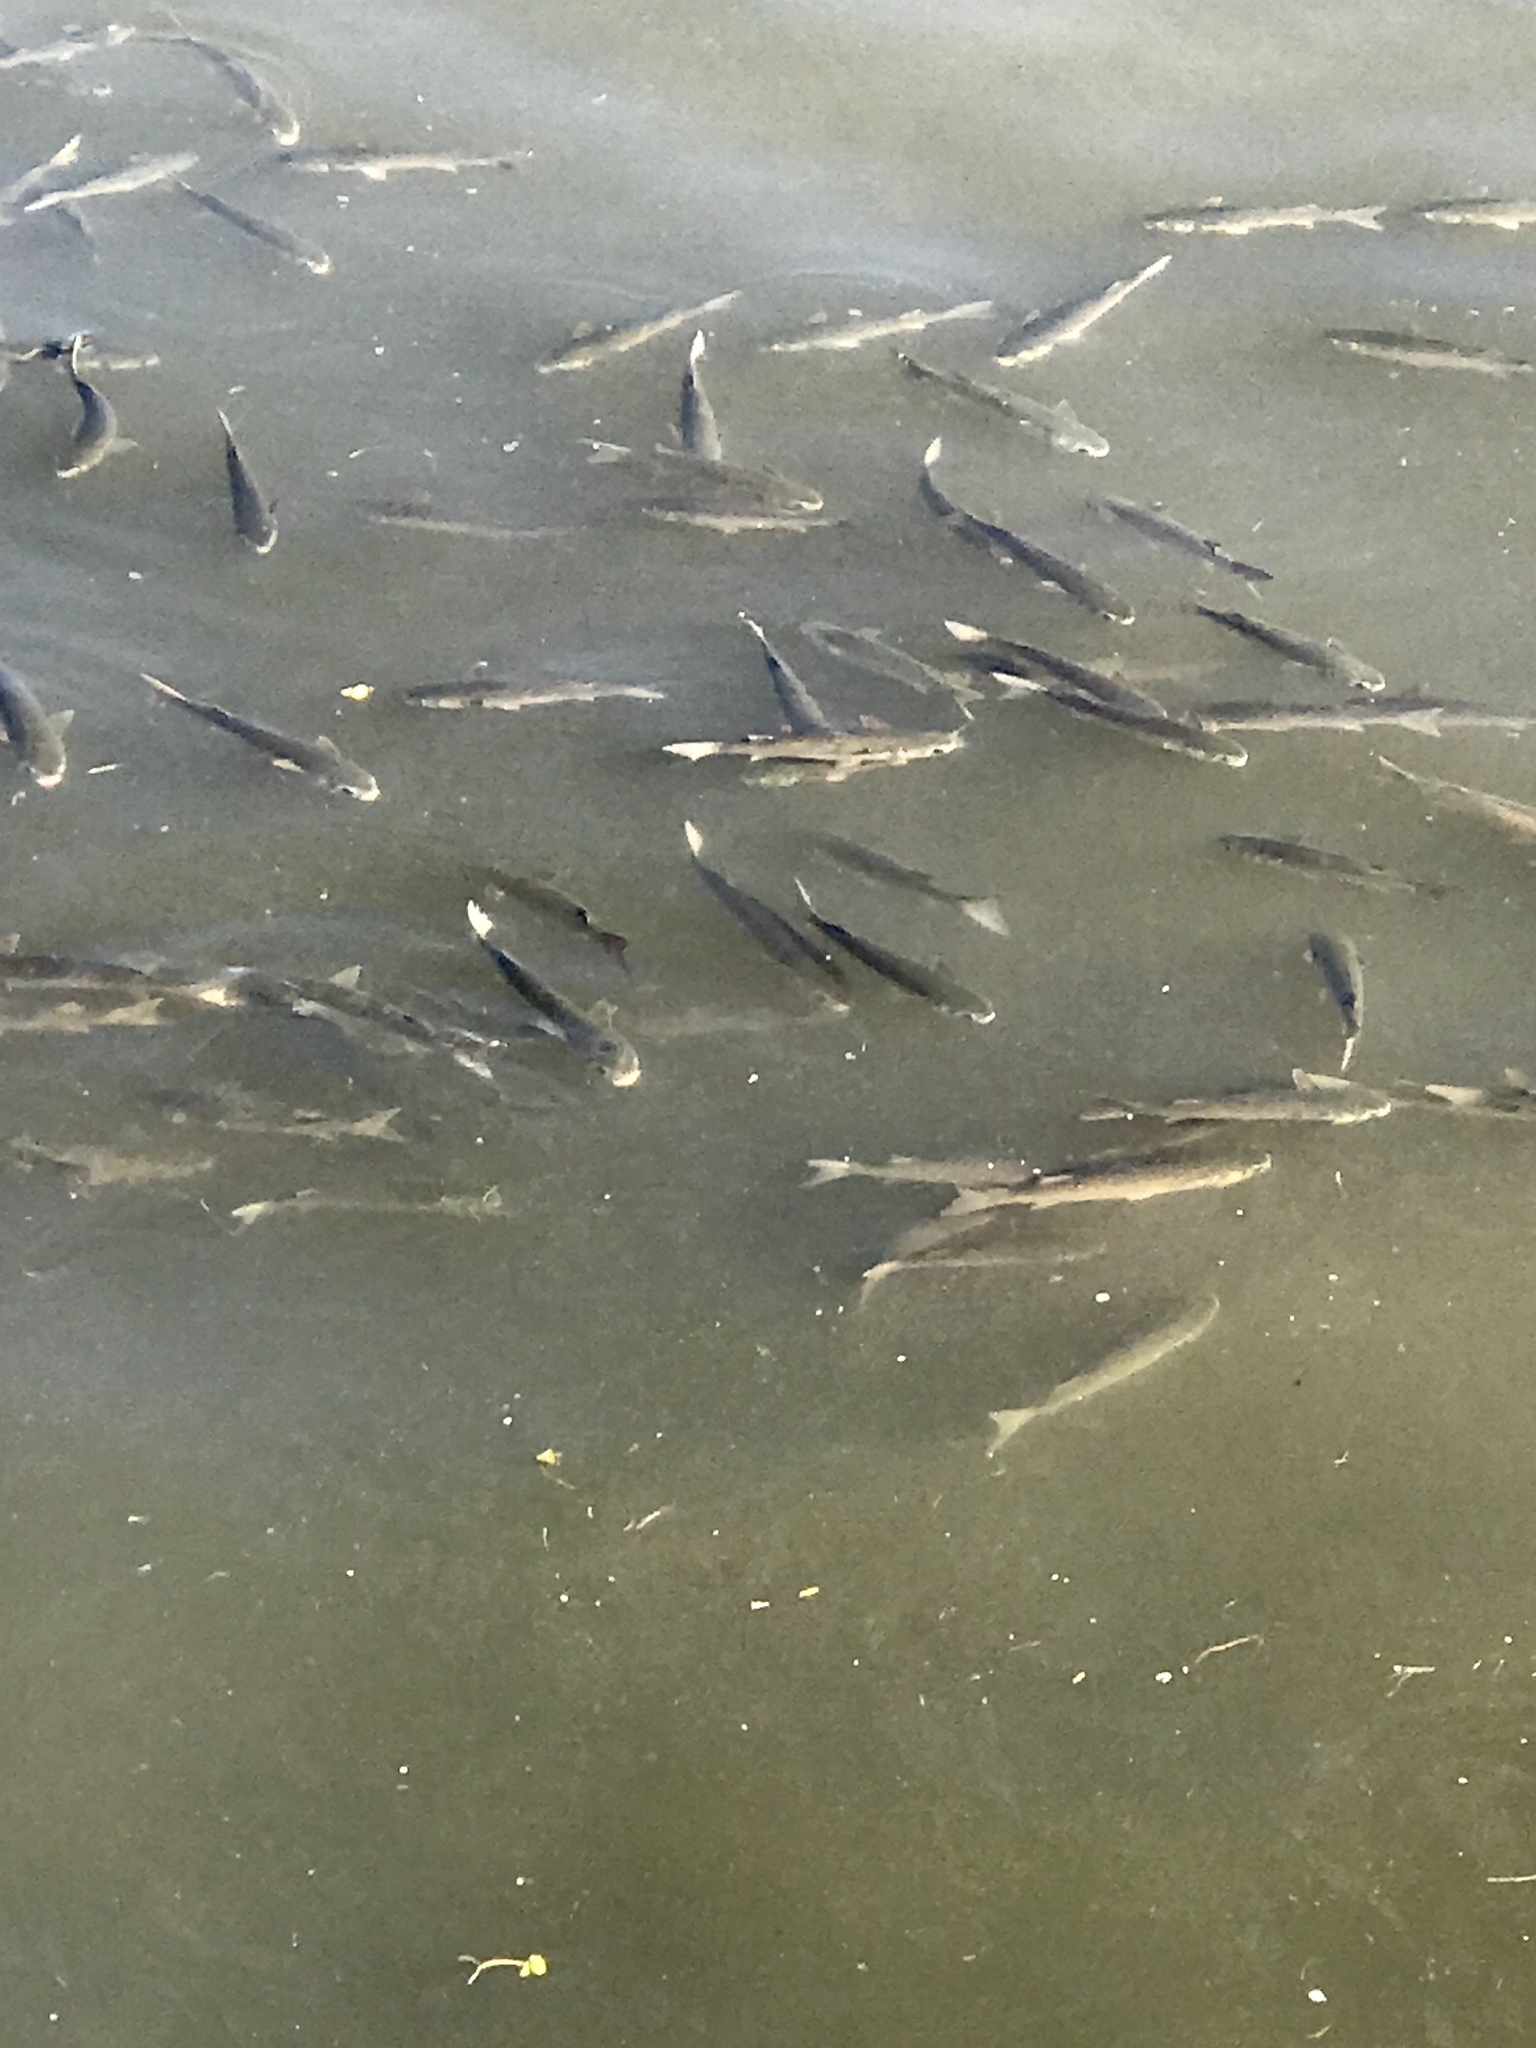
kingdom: Animalia
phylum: Chordata
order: Mugiliformes
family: Mugilidae
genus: Mugil
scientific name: Mugil cephalus
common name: Grey mullet
